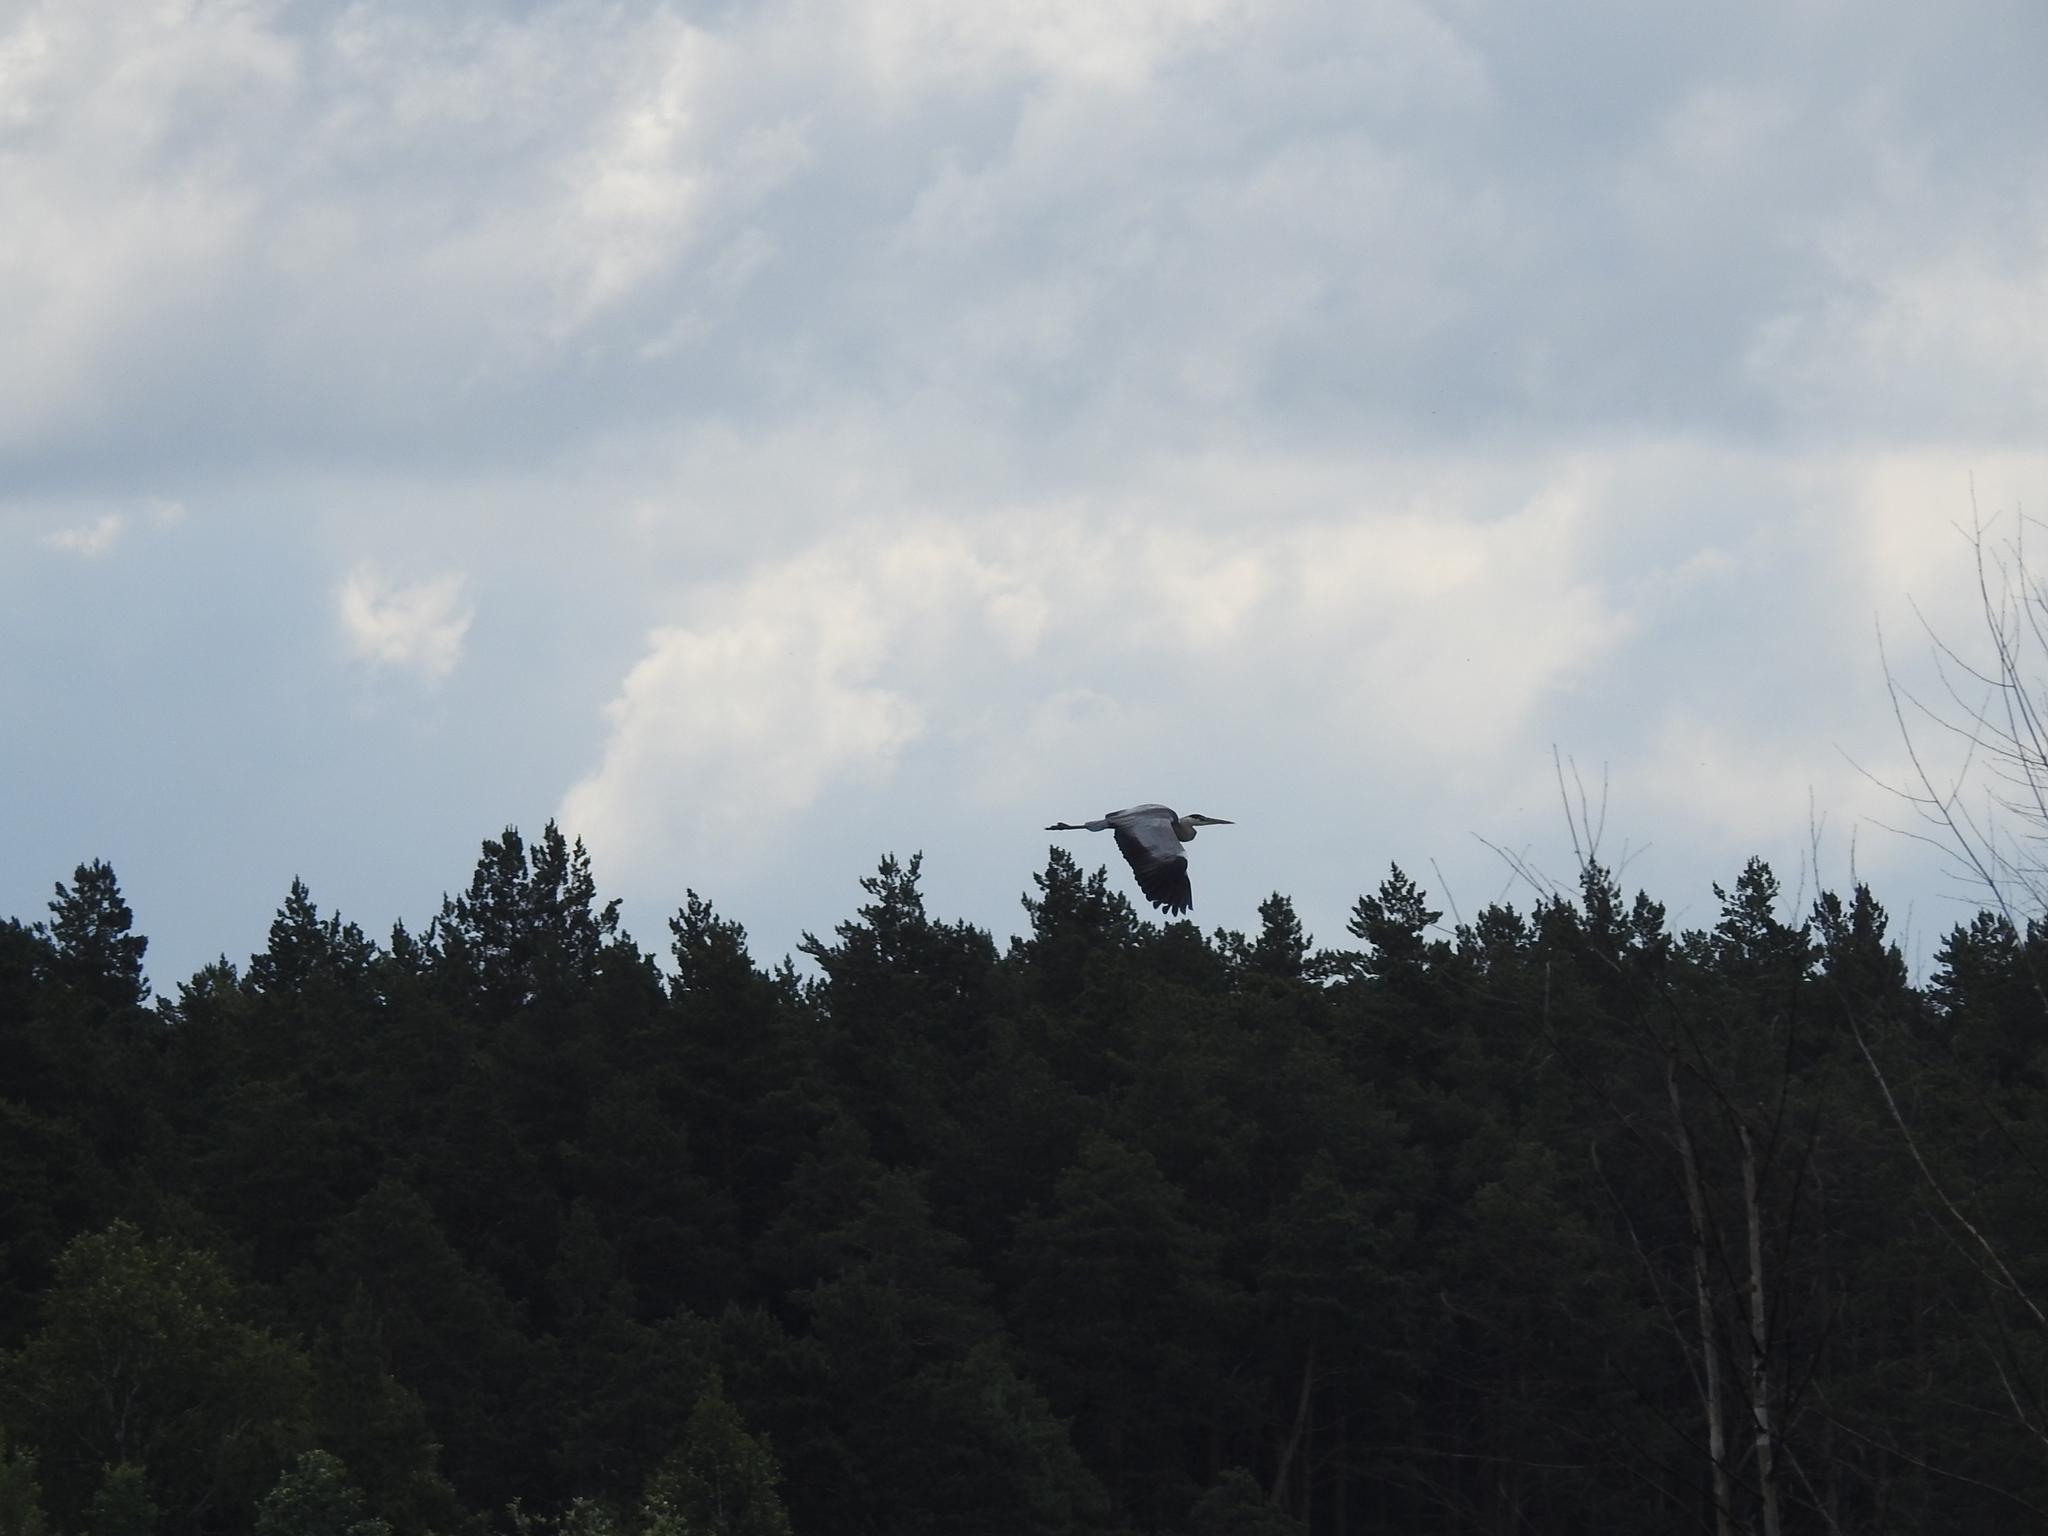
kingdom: Animalia
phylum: Chordata
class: Aves
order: Pelecaniformes
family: Ardeidae
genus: Ardea
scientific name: Ardea cinerea
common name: Grey heron
